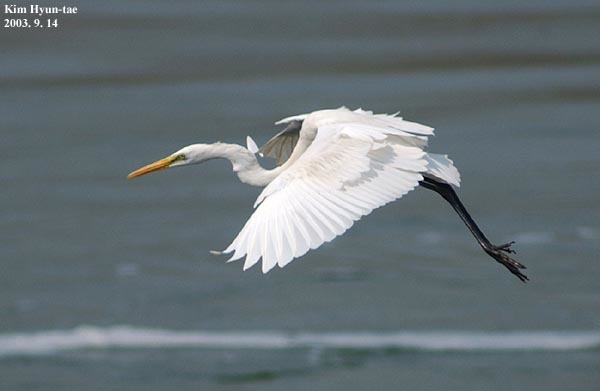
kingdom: Animalia
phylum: Chordata
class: Aves
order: Pelecaniformes
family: Ardeidae
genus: Ardea
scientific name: Ardea alba
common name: Great egret
